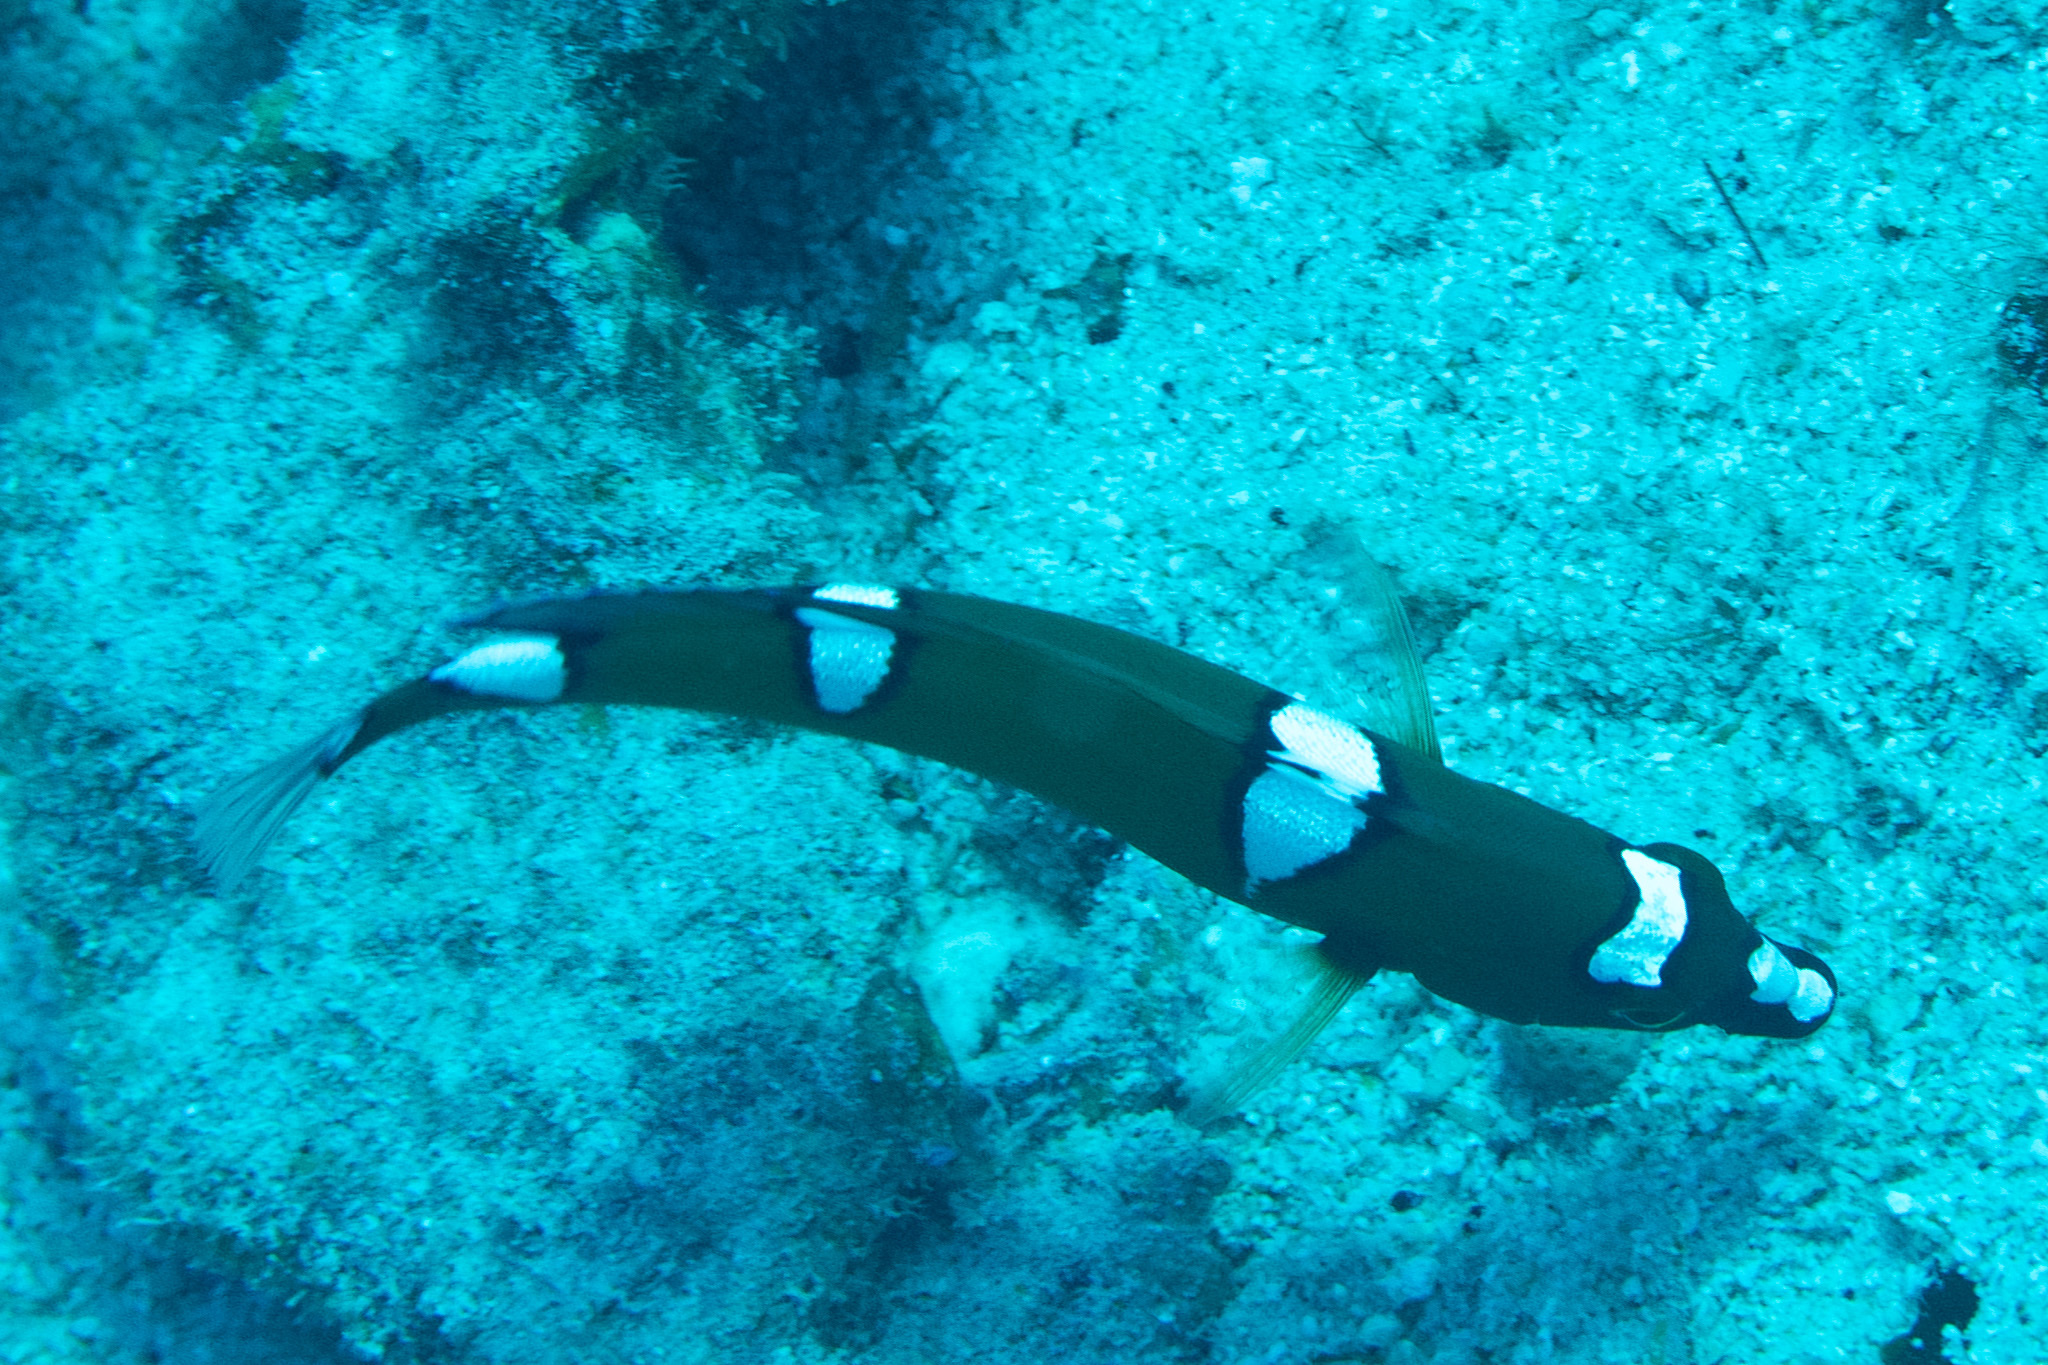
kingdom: Animalia
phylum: Chordata
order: Perciformes
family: Labridae
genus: Coris
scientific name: Coris gaimard
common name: Yellowtail coris
